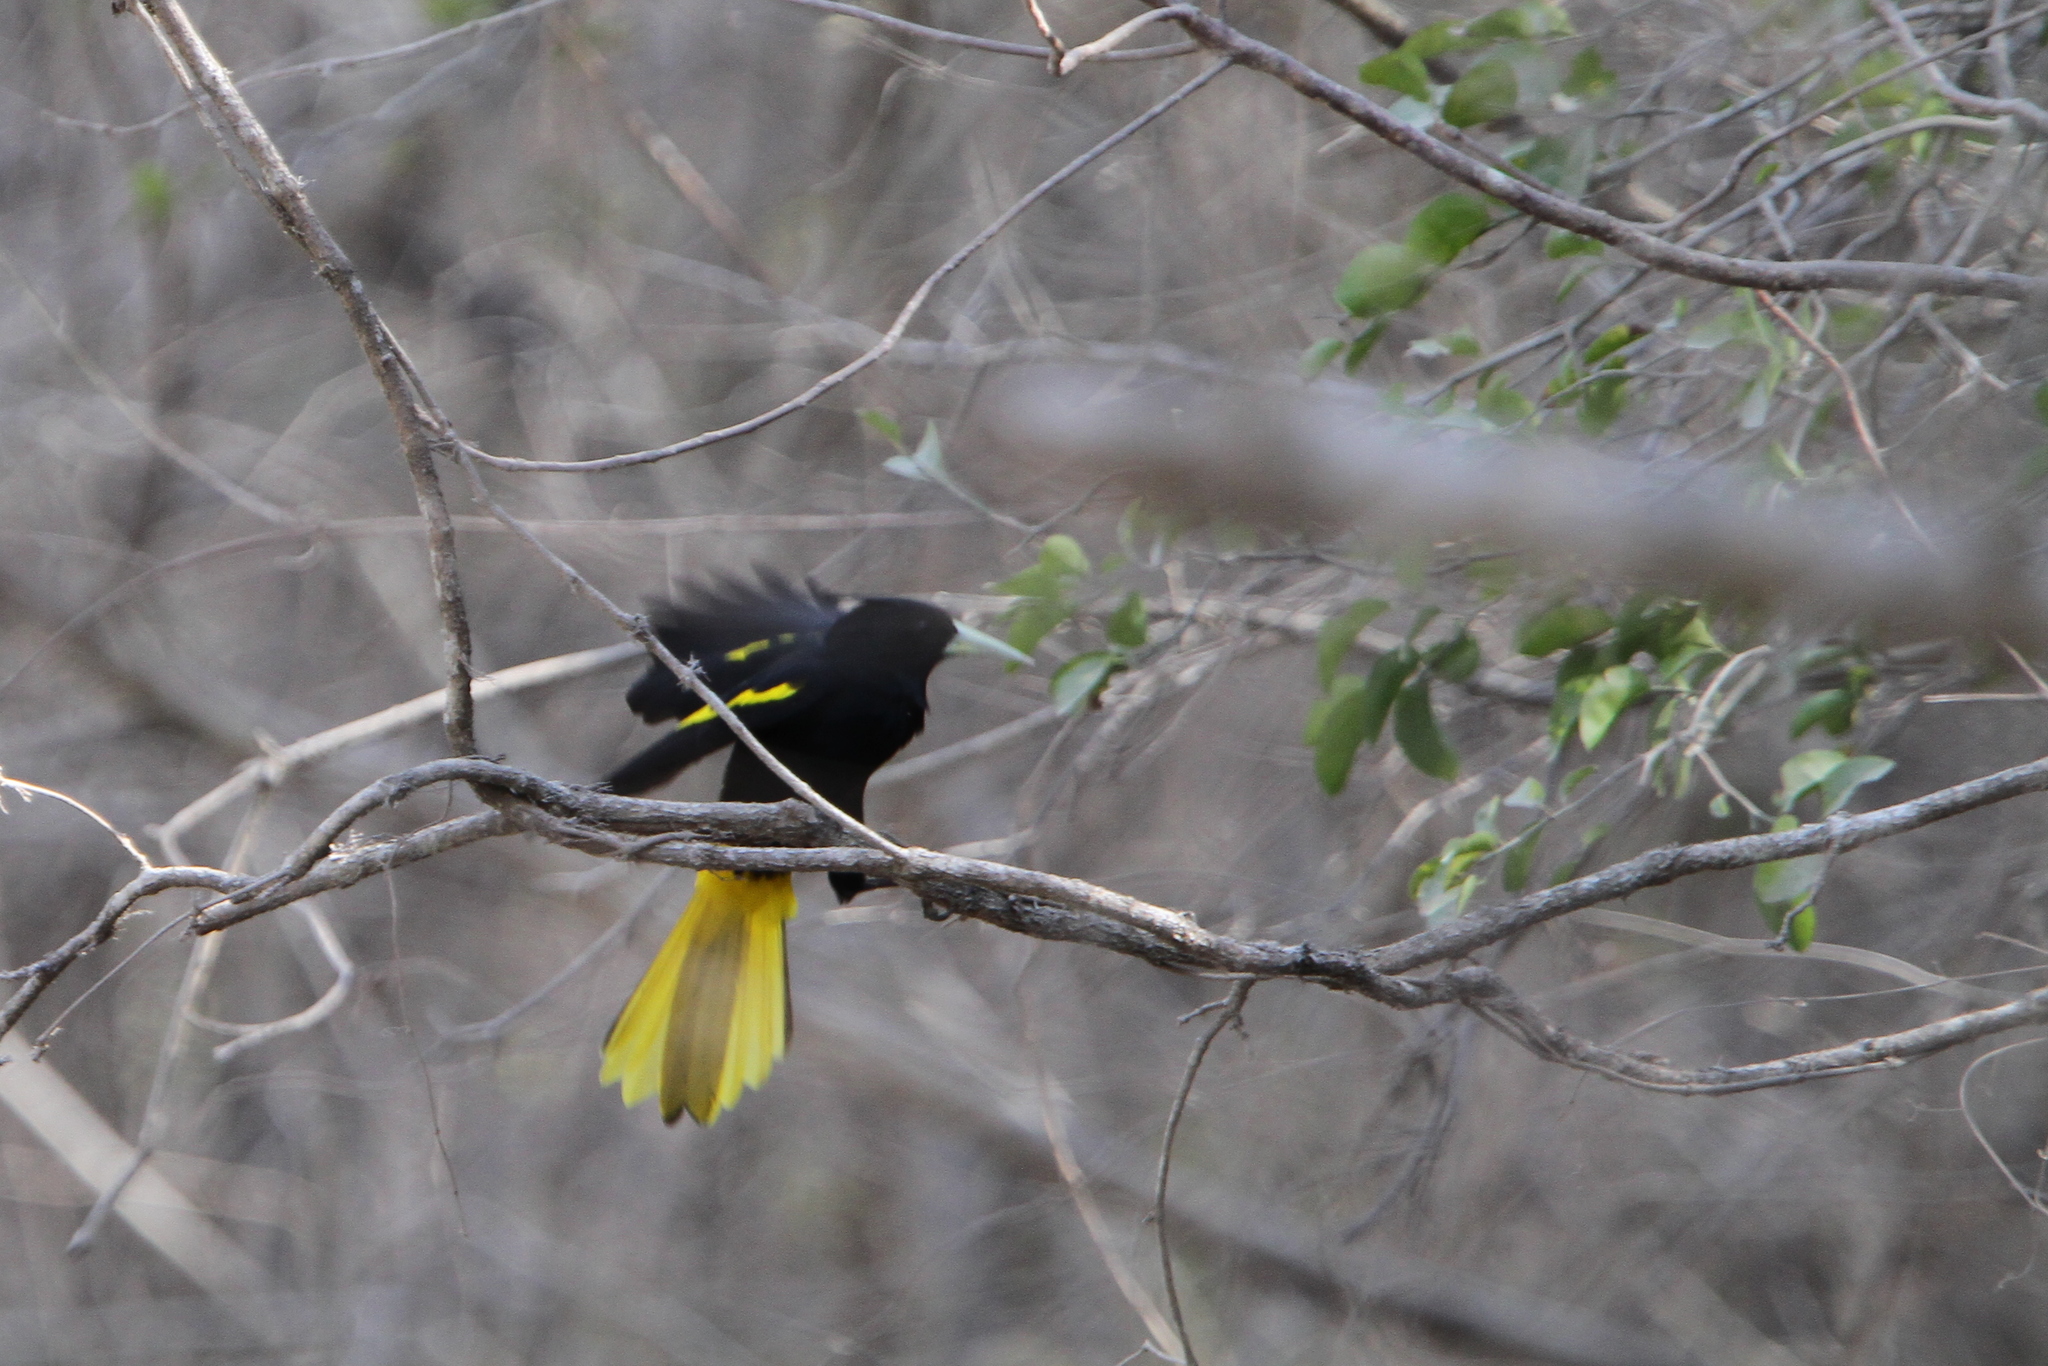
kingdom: Animalia
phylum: Chordata
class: Aves
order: Passeriformes
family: Icteridae
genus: Cacicus
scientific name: Cacicus melanicterus
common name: Yellow-winged cacique
